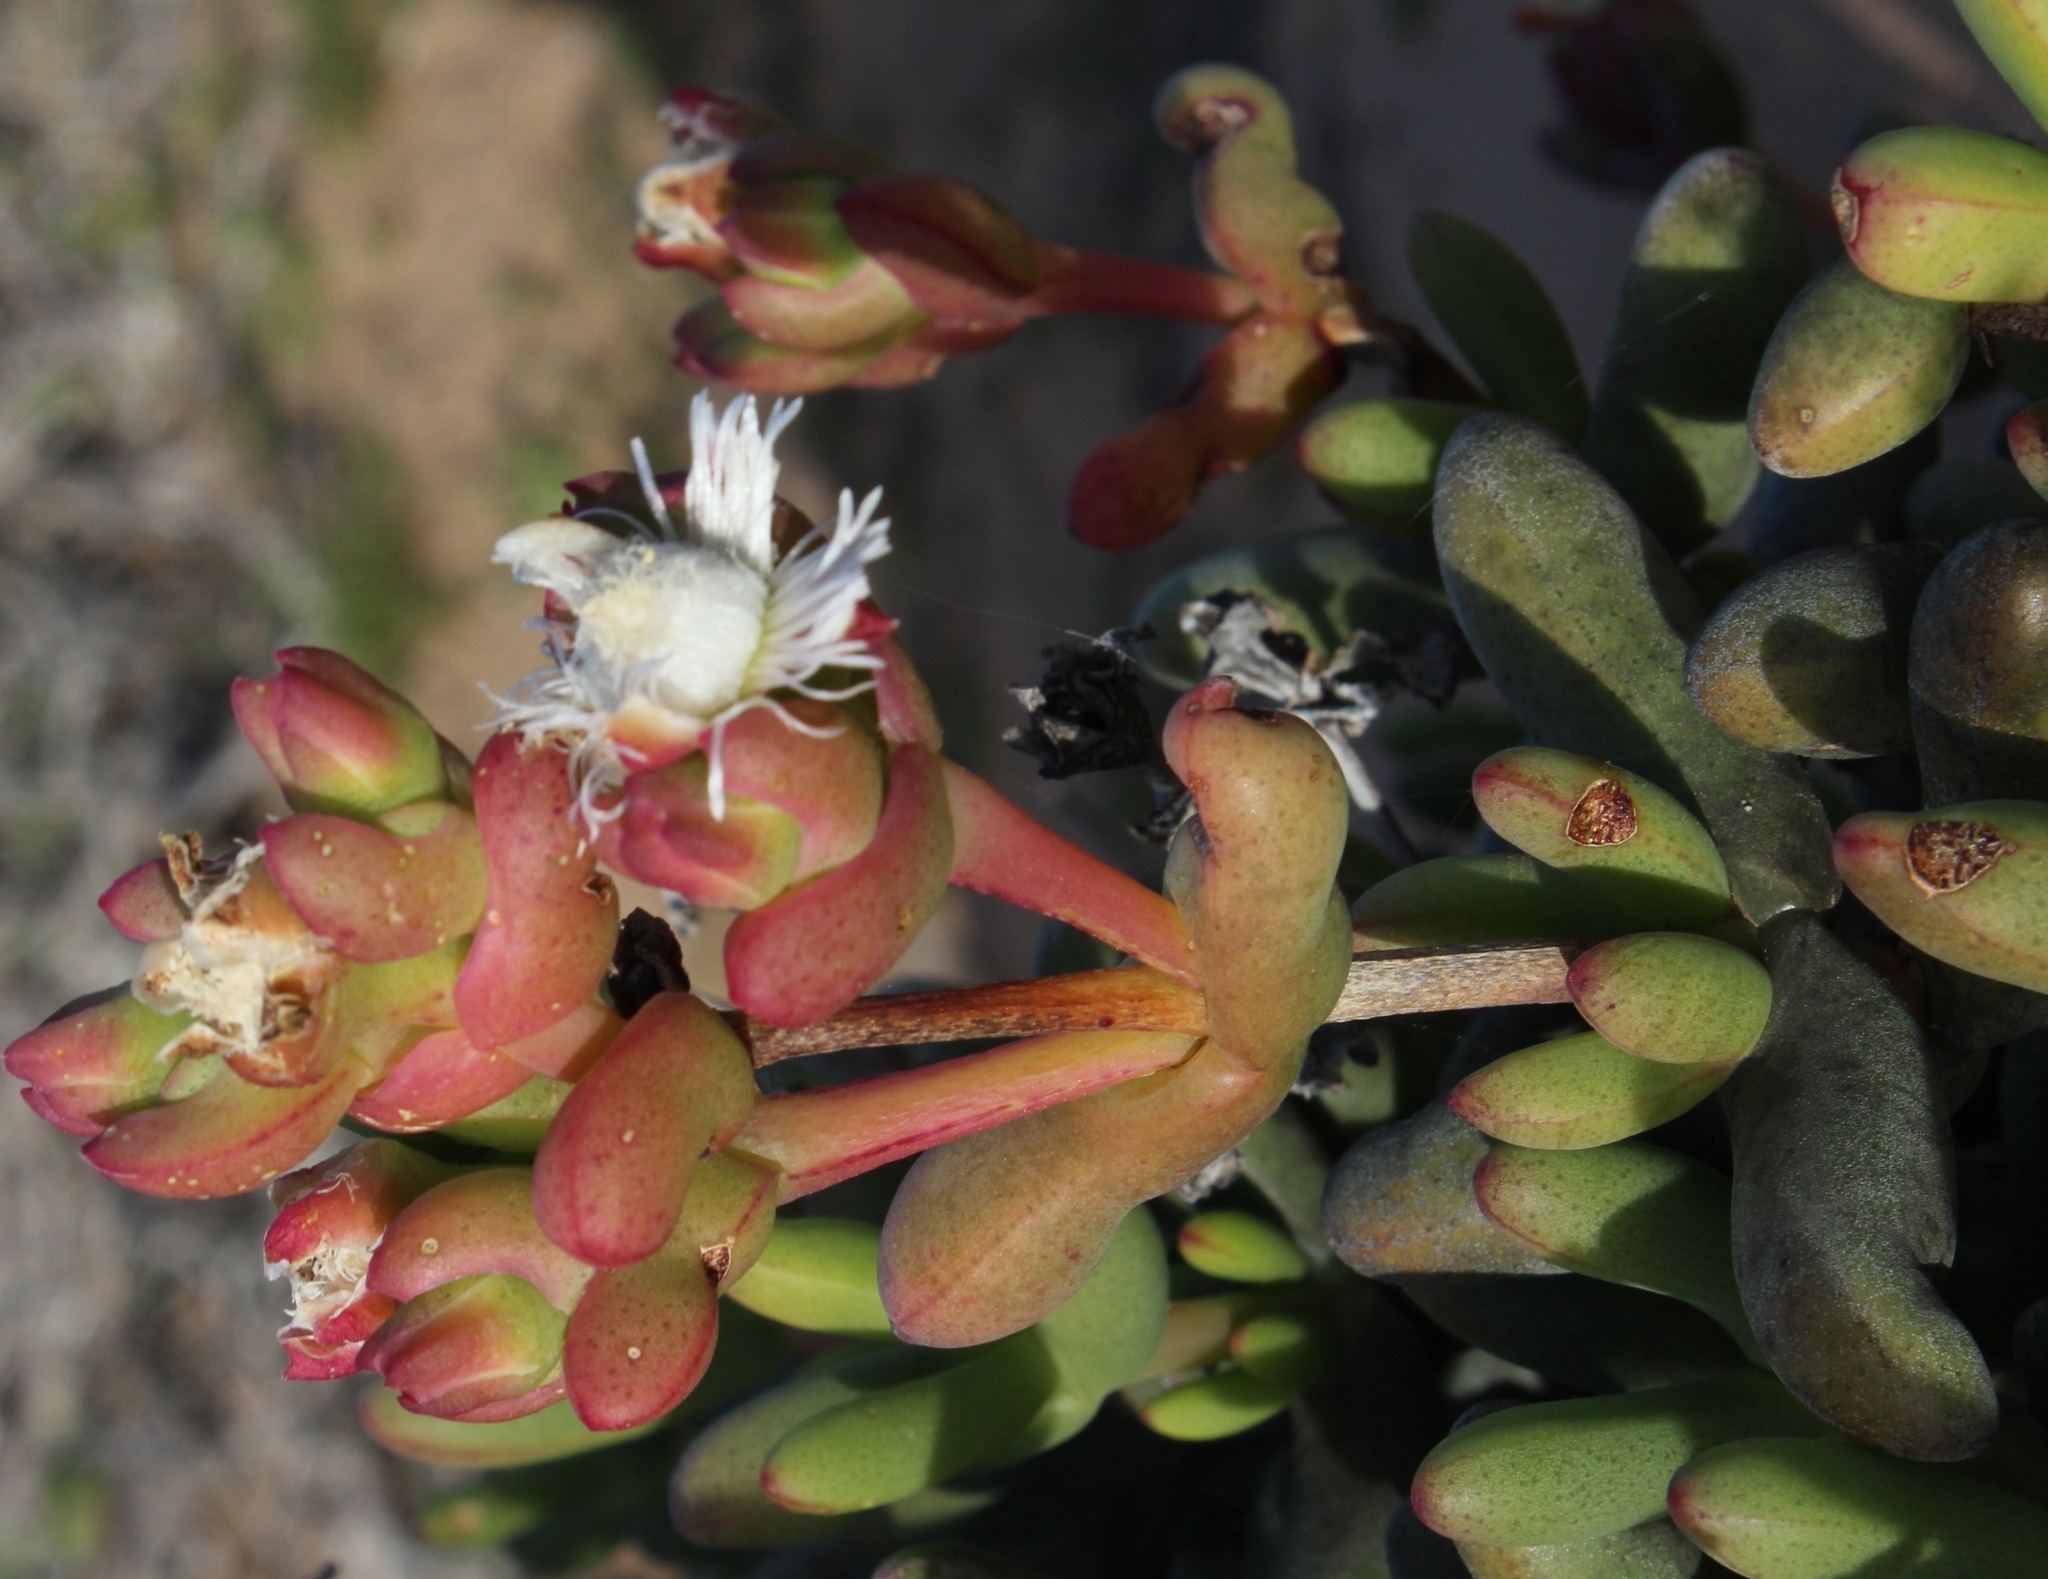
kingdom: Plantae
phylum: Tracheophyta
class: Magnoliopsida
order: Caryophyllales
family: Aizoaceae
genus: Stoeberia
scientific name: Stoeberia beetzii
